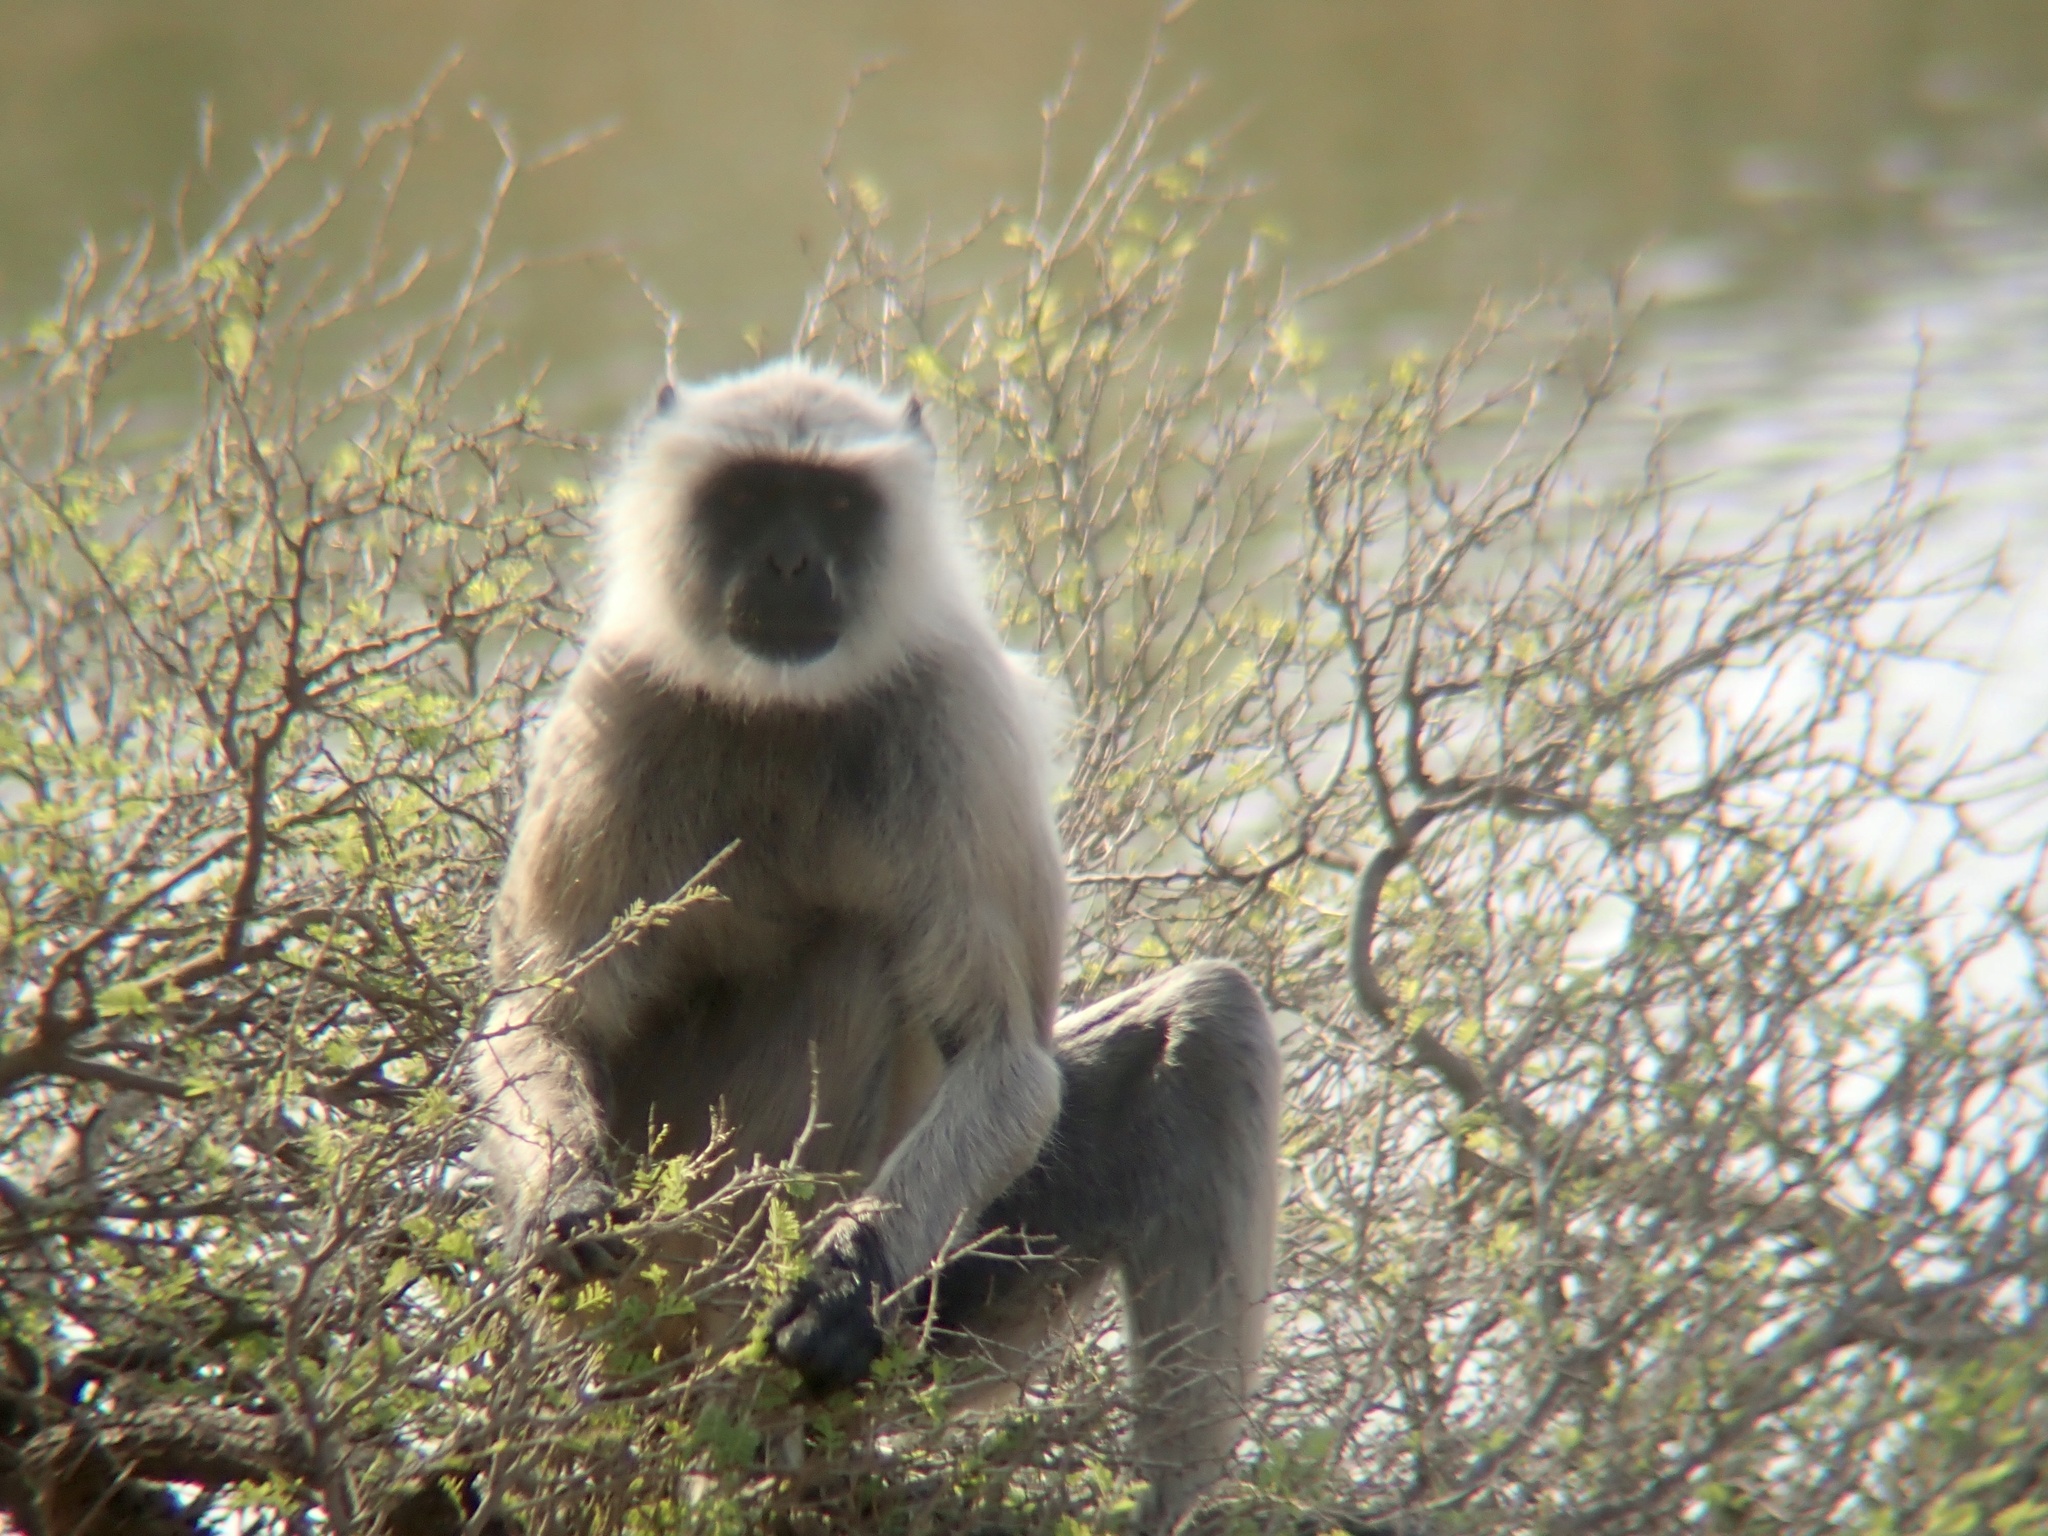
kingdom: Animalia
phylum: Chordata
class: Mammalia
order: Primates
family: Cercopithecidae
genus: Semnopithecus
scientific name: Semnopithecus entellus
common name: Northern plains gray langur
